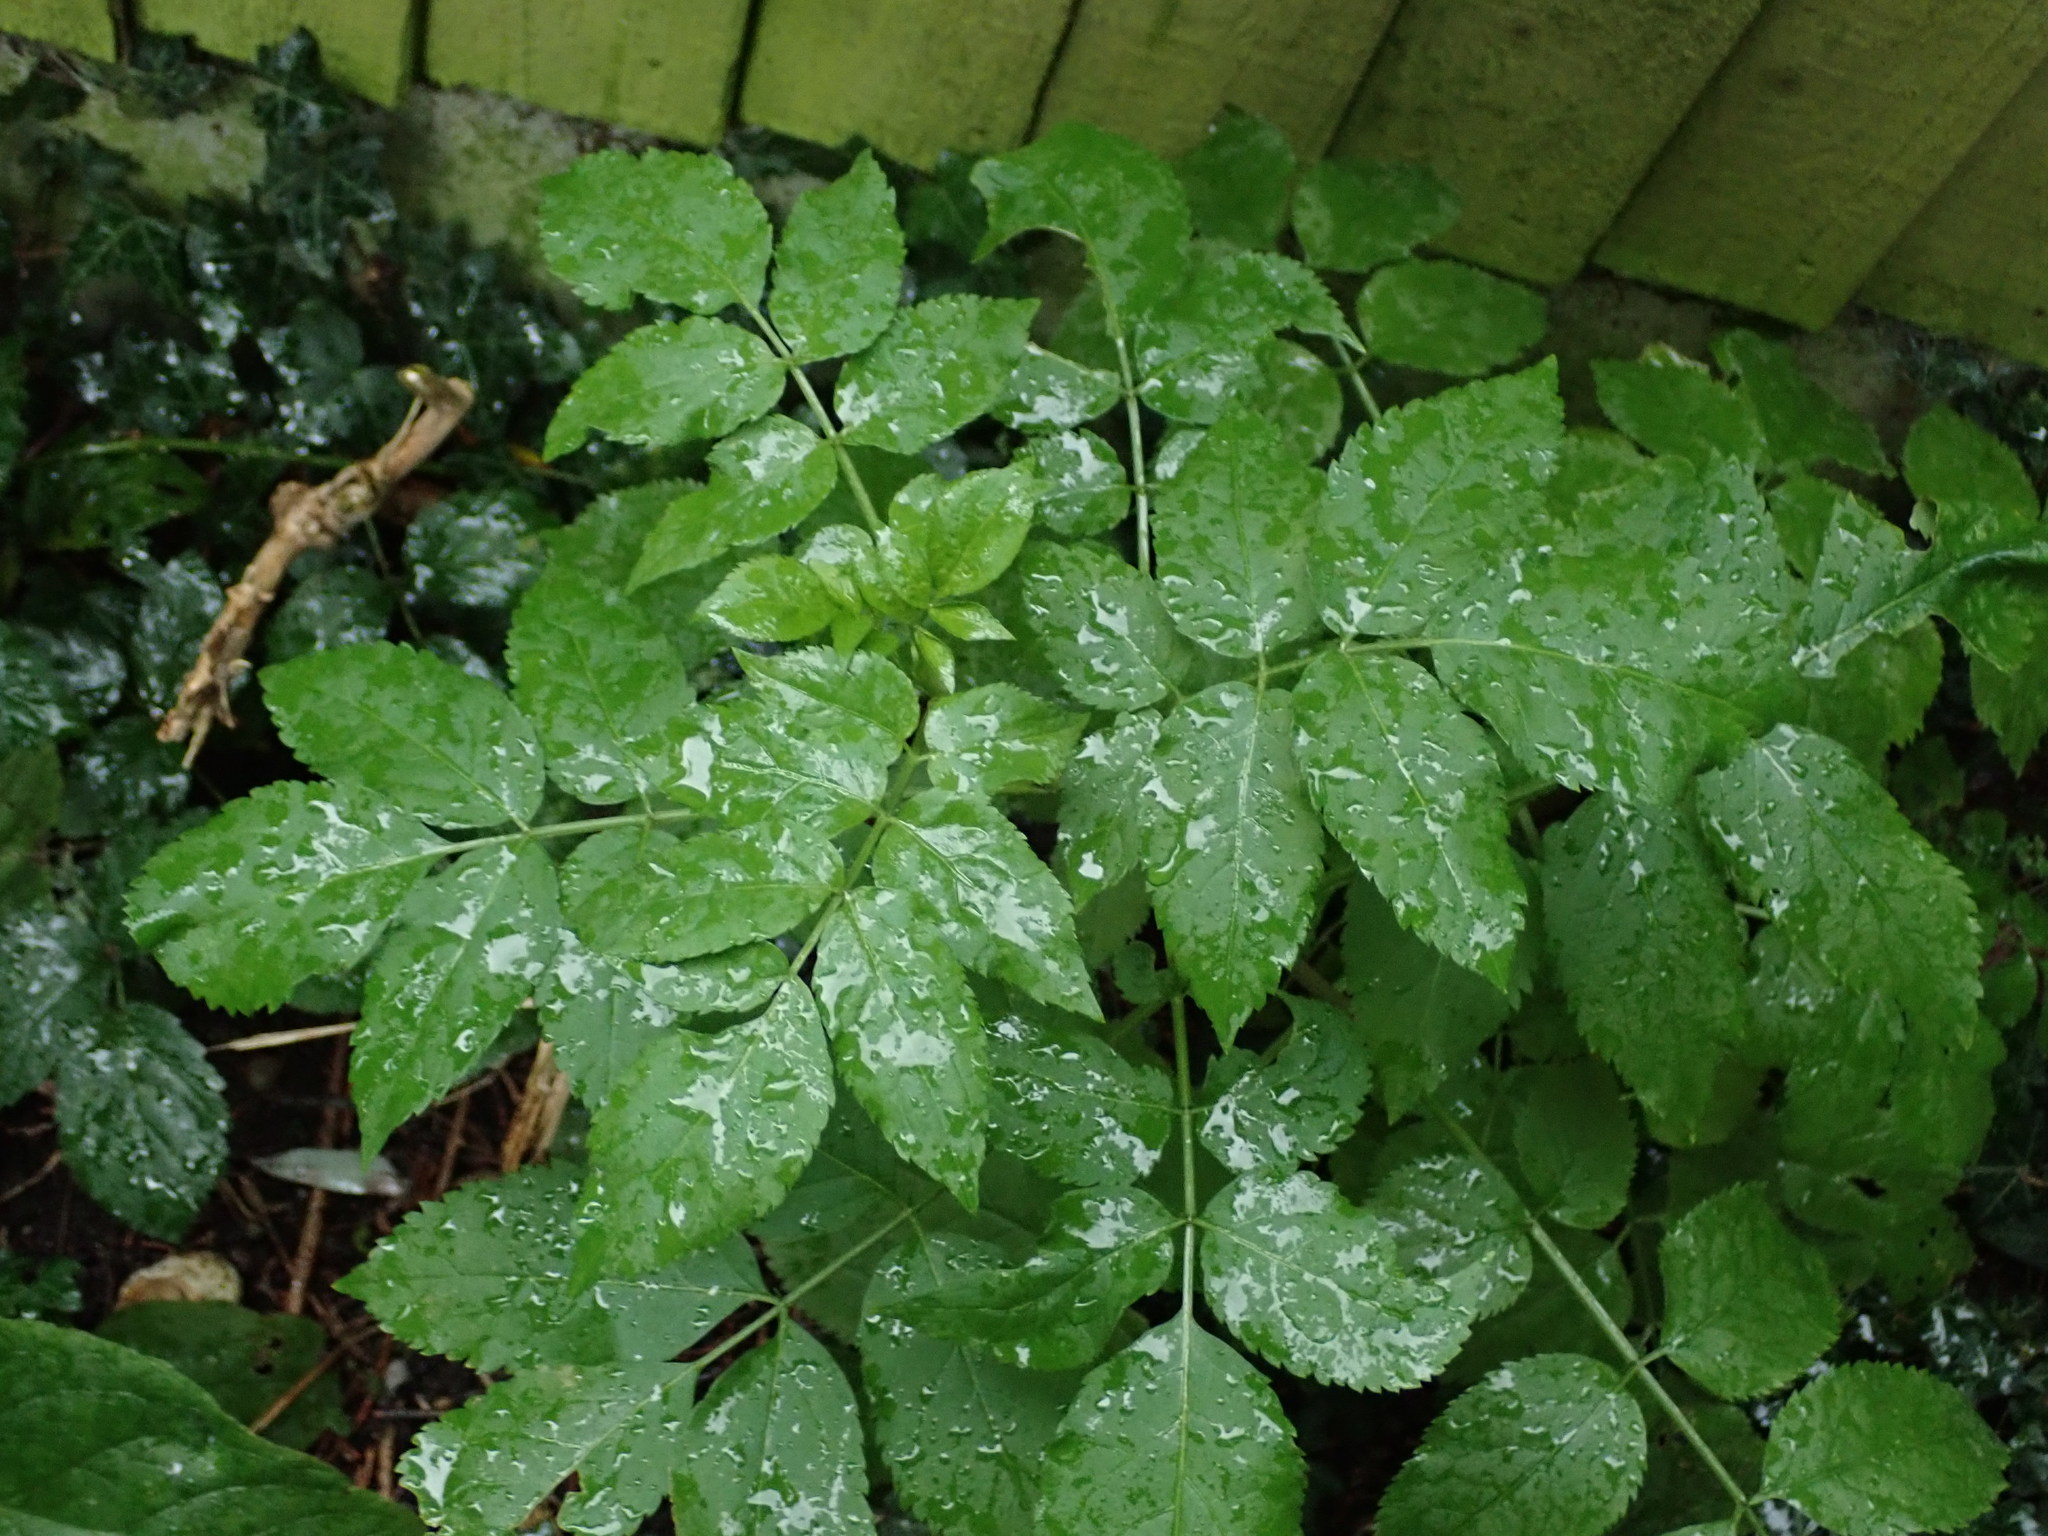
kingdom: Plantae
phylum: Tracheophyta
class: Magnoliopsida
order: Dipsacales
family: Viburnaceae
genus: Sambucus
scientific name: Sambucus nigra
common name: Elder
